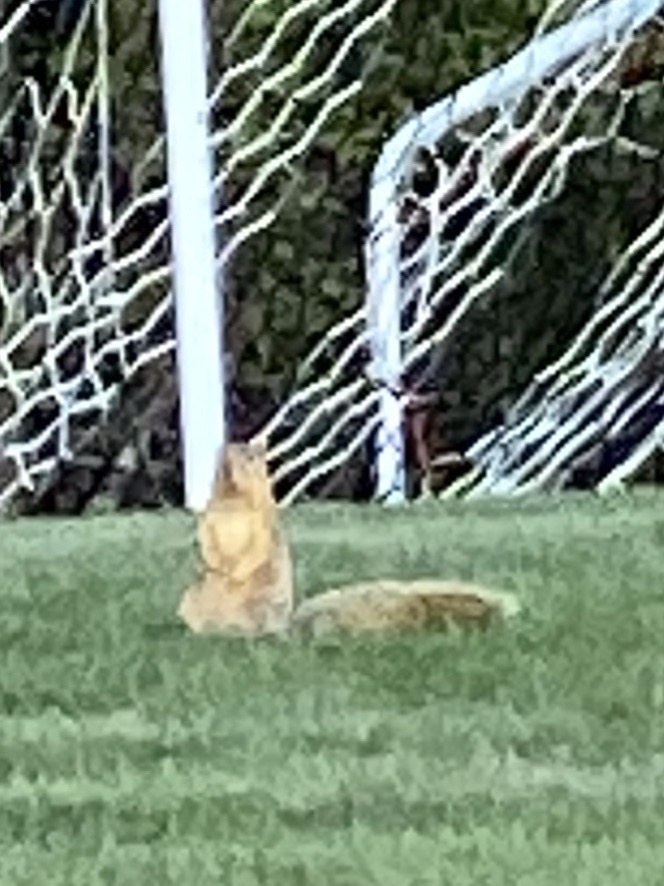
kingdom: Animalia
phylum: Chordata
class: Mammalia
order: Rodentia
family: Sciuridae
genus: Sciurus
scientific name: Sciurus niger
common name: Fox squirrel
